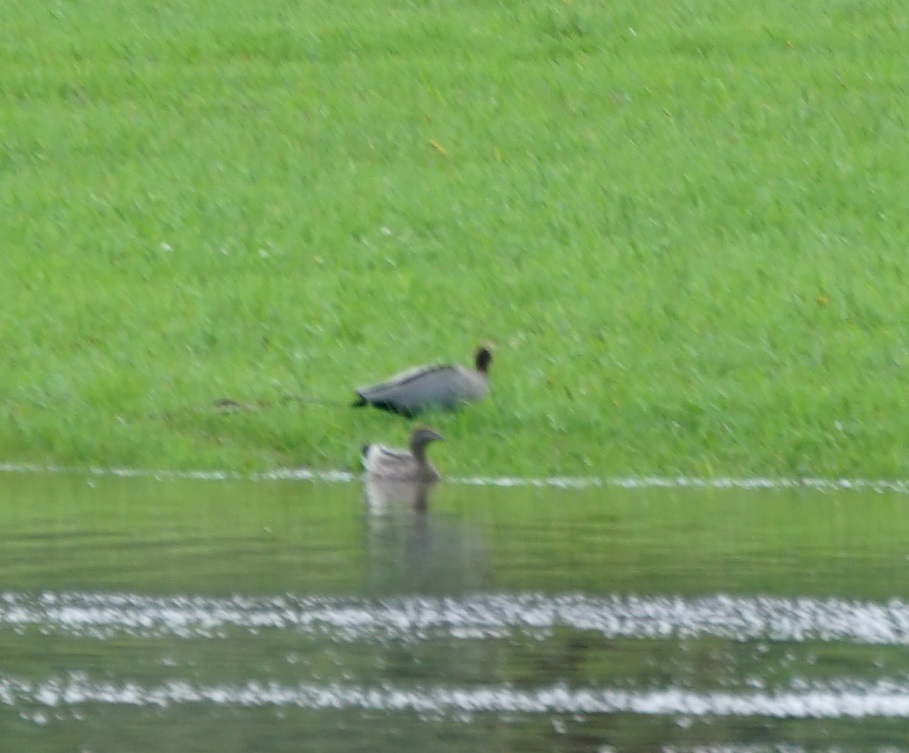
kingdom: Animalia
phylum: Chordata
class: Aves
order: Anseriformes
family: Anatidae
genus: Chenonetta
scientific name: Chenonetta jubata
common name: Maned duck
